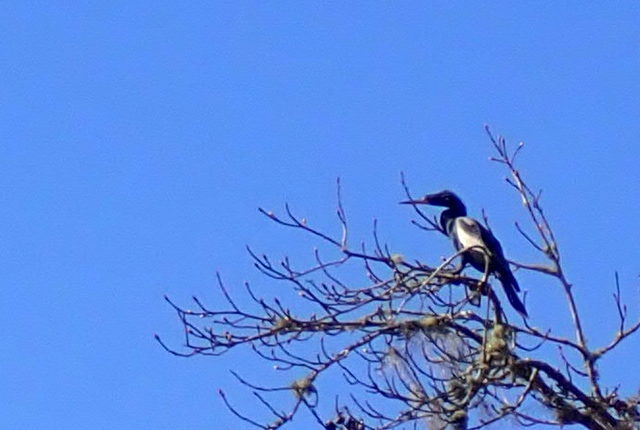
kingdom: Animalia
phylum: Chordata
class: Aves
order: Suliformes
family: Anhingidae
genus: Anhinga
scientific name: Anhinga anhinga
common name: Anhinga
